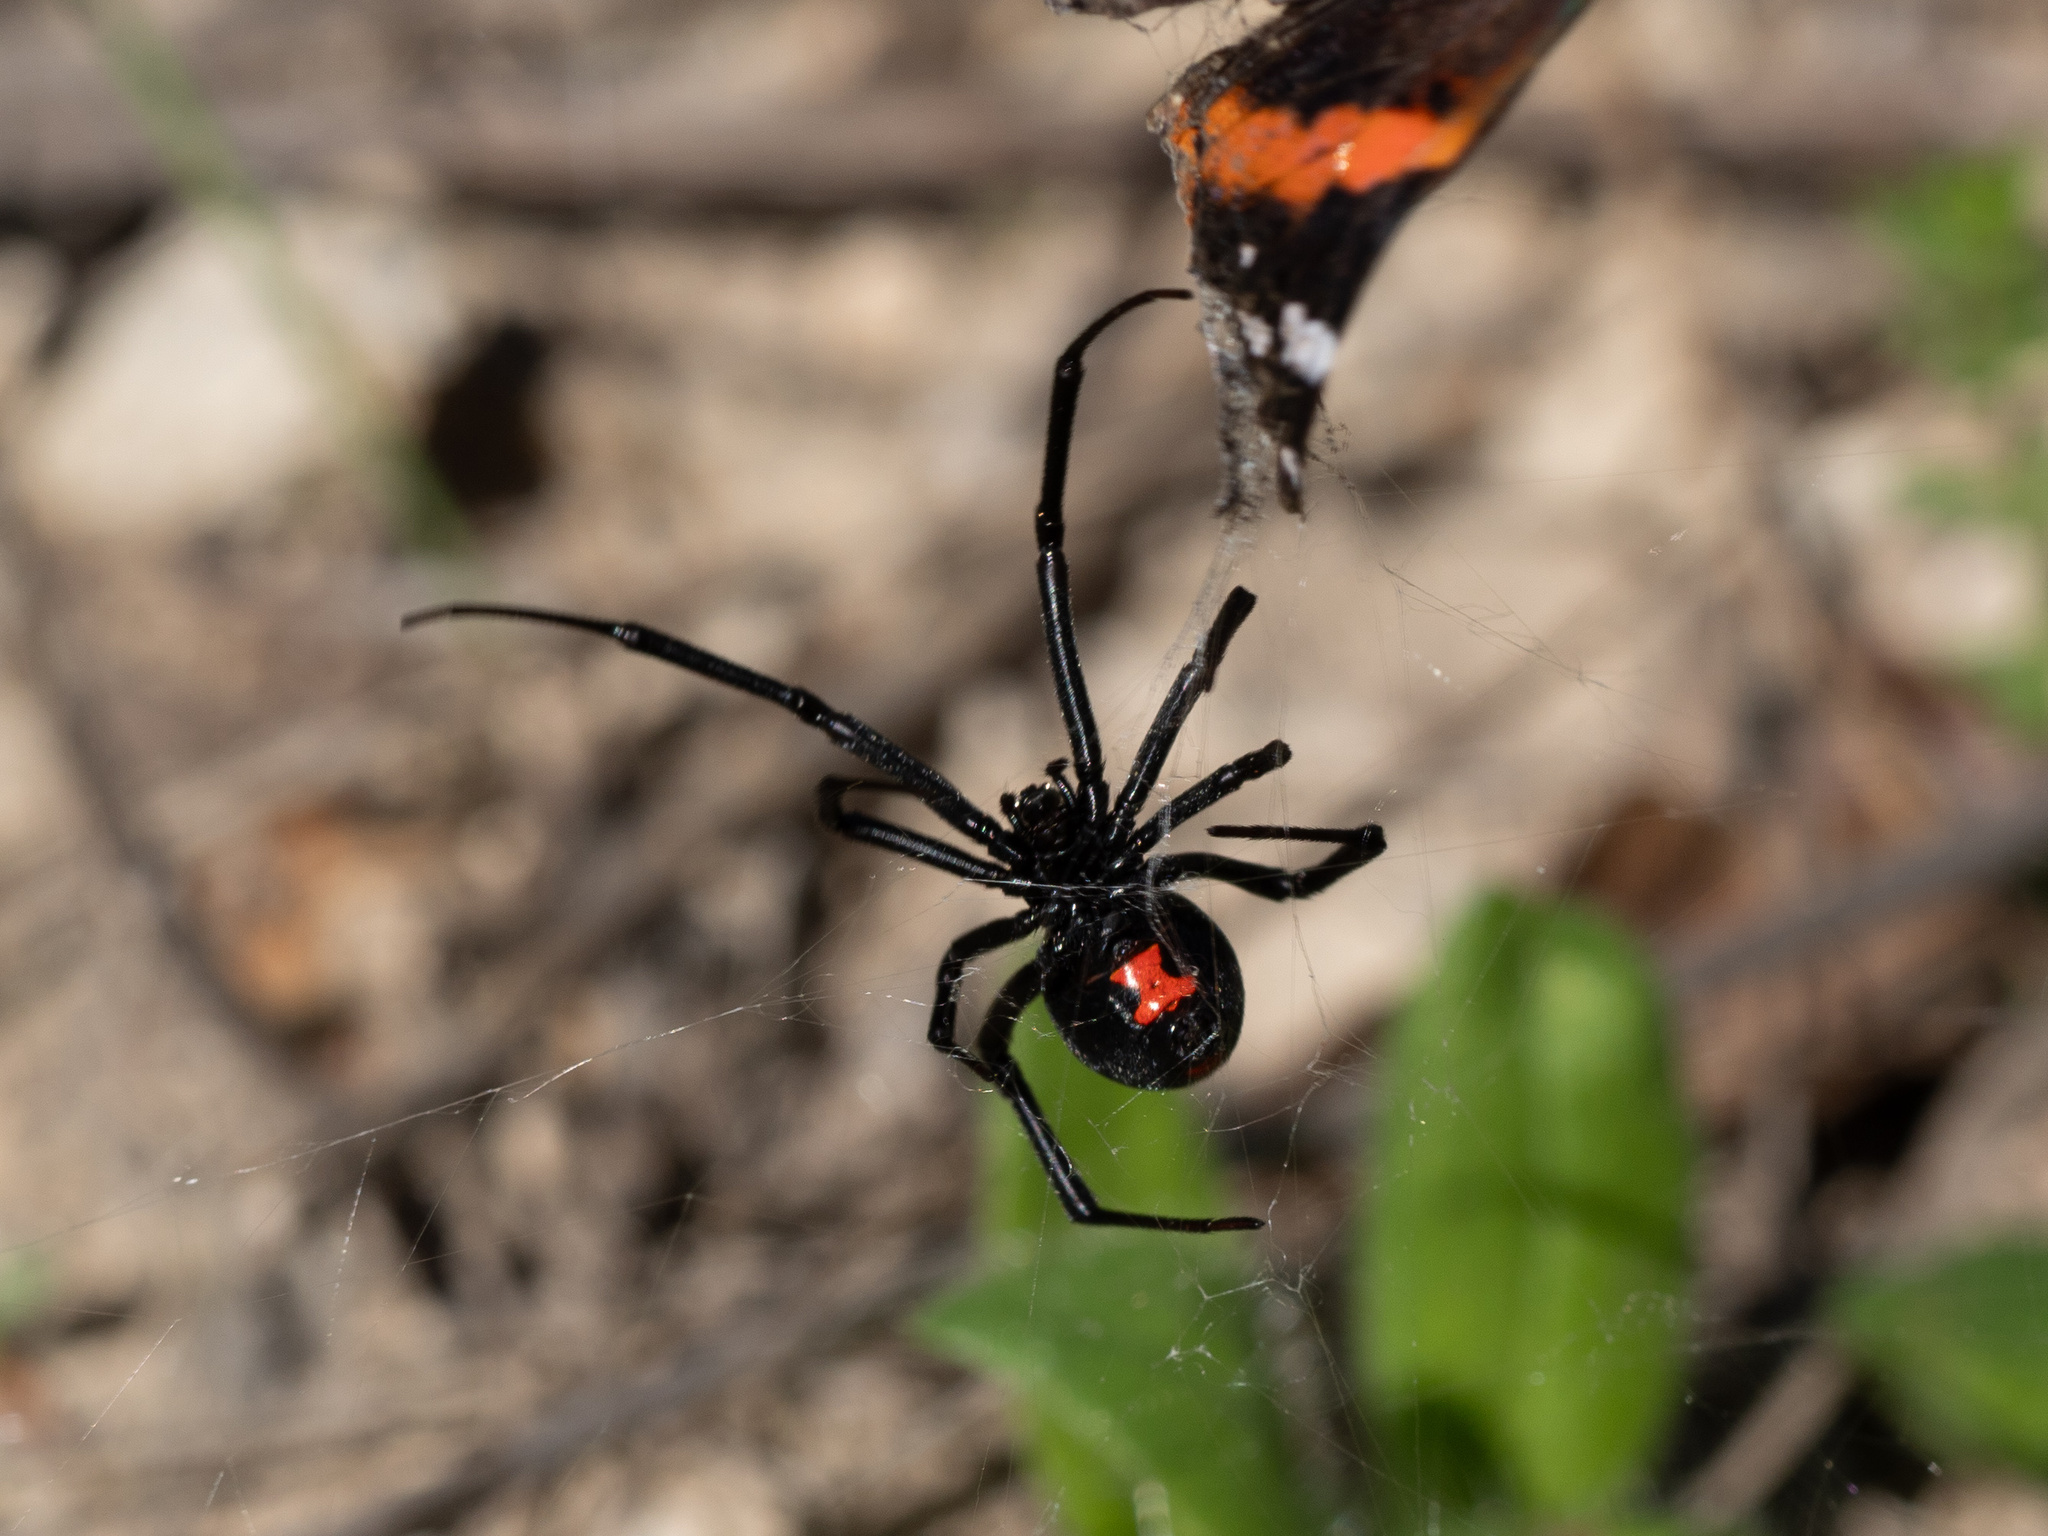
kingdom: Animalia
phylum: Arthropoda
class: Arachnida
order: Araneae
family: Theridiidae
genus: Latrodectus
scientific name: Latrodectus mactans
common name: Cobweb spiders
